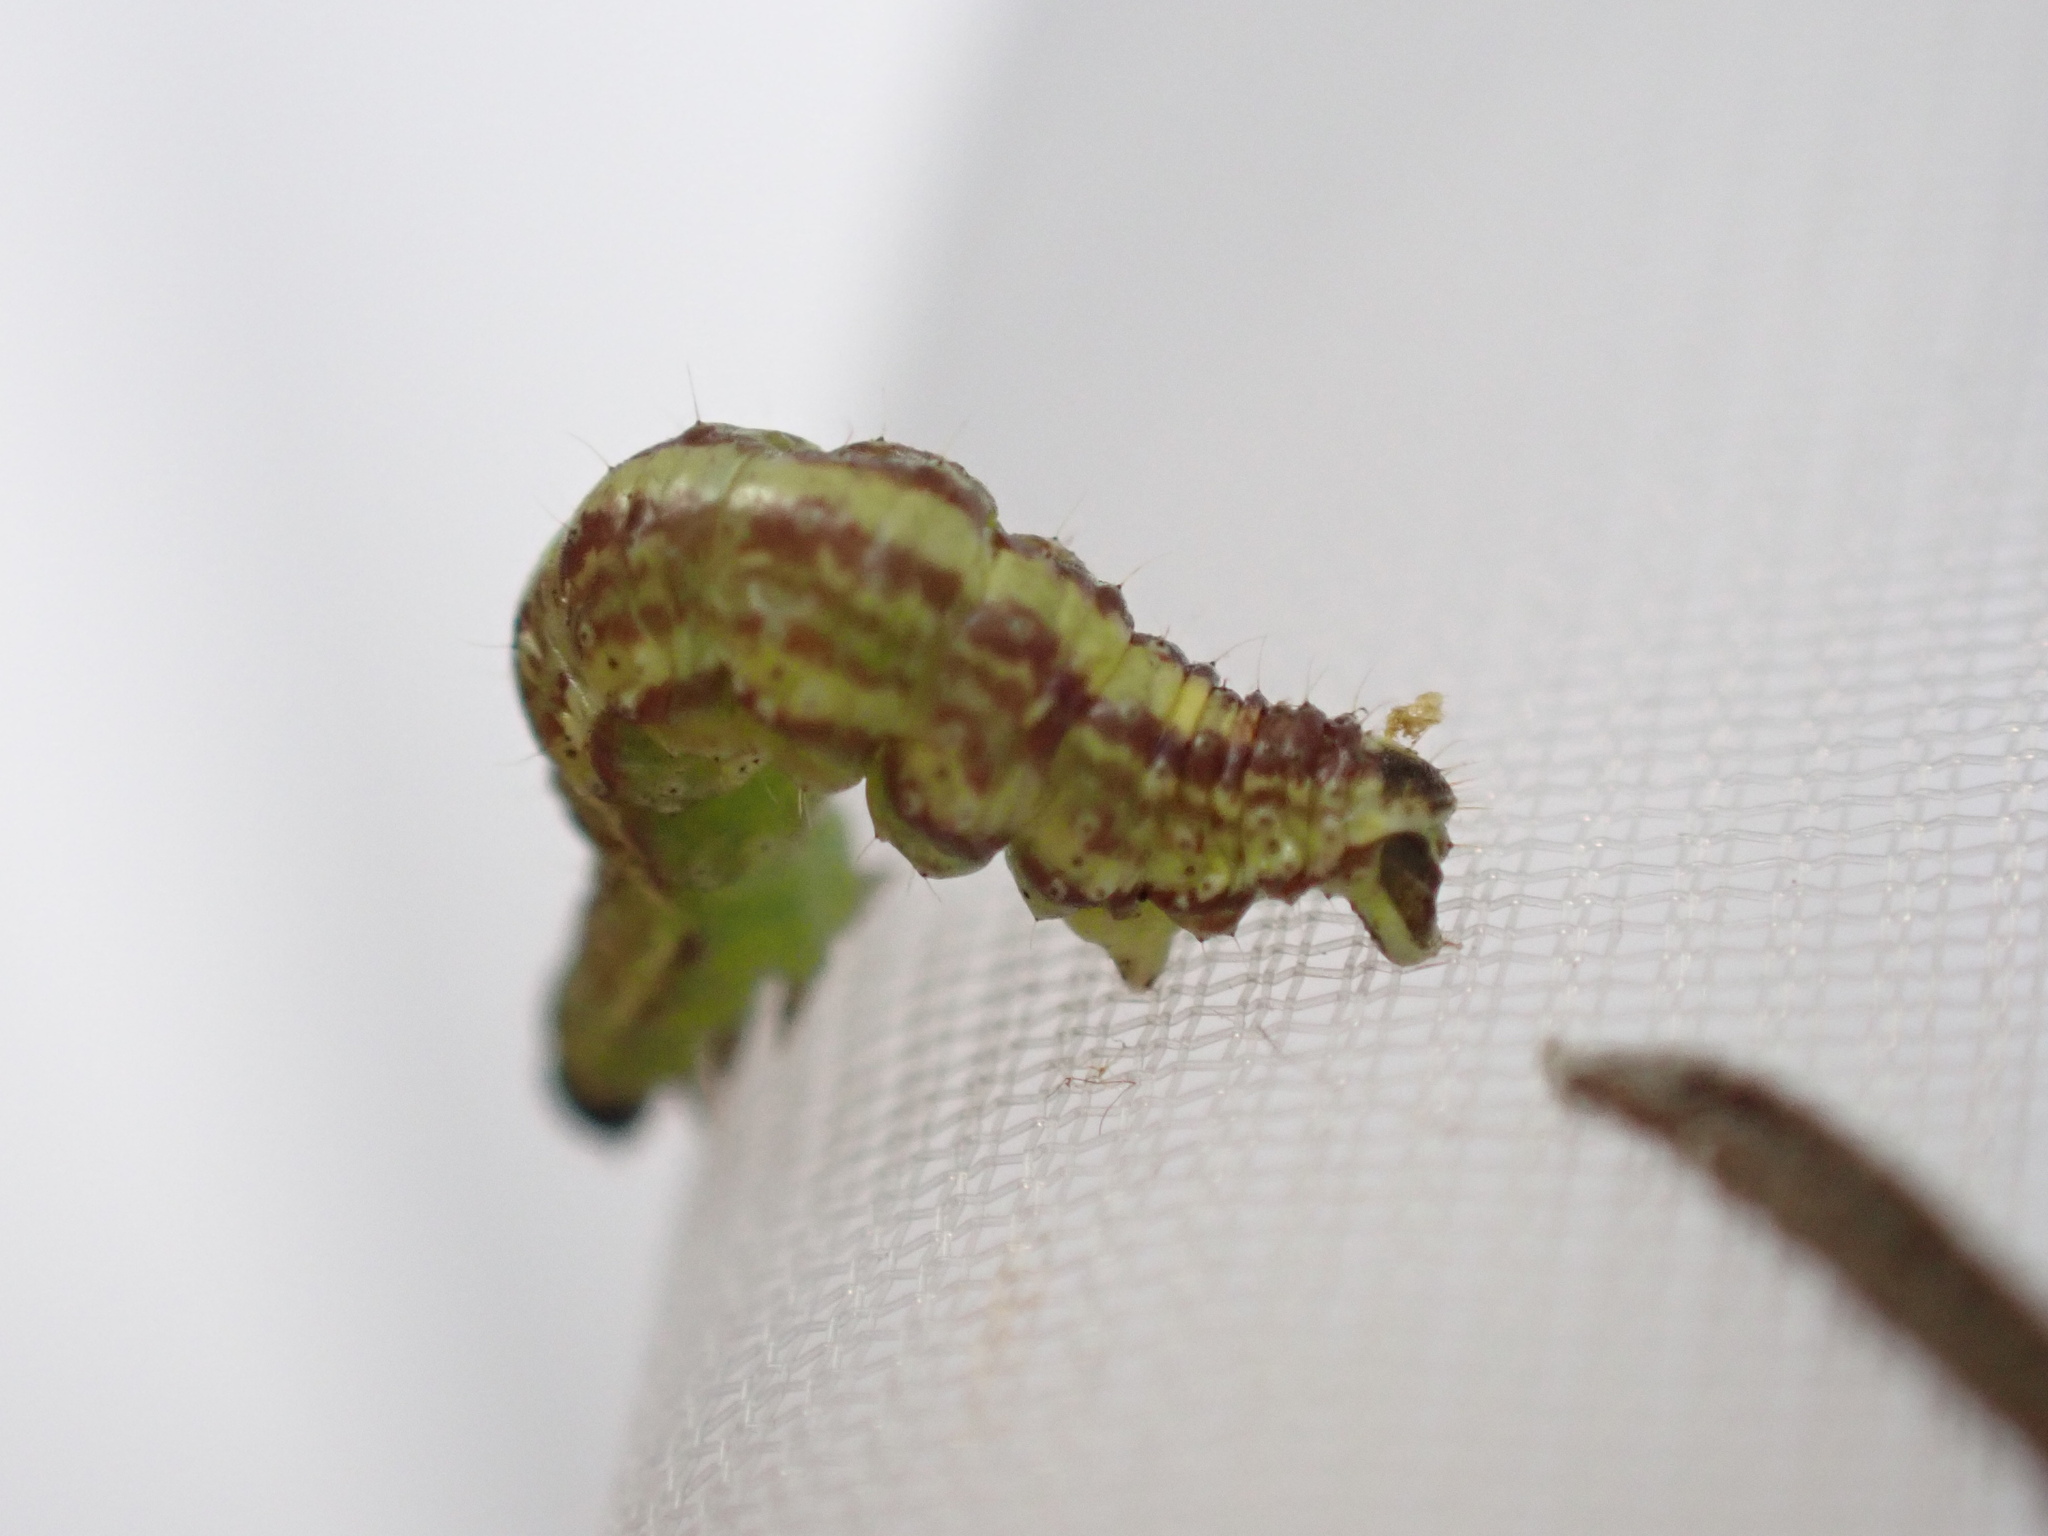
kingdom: Animalia
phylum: Arthropoda
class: Insecta
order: Lepidoptera
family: Geometridae
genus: Perizoma
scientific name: Perizoma alchemillata
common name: Small rivulet
